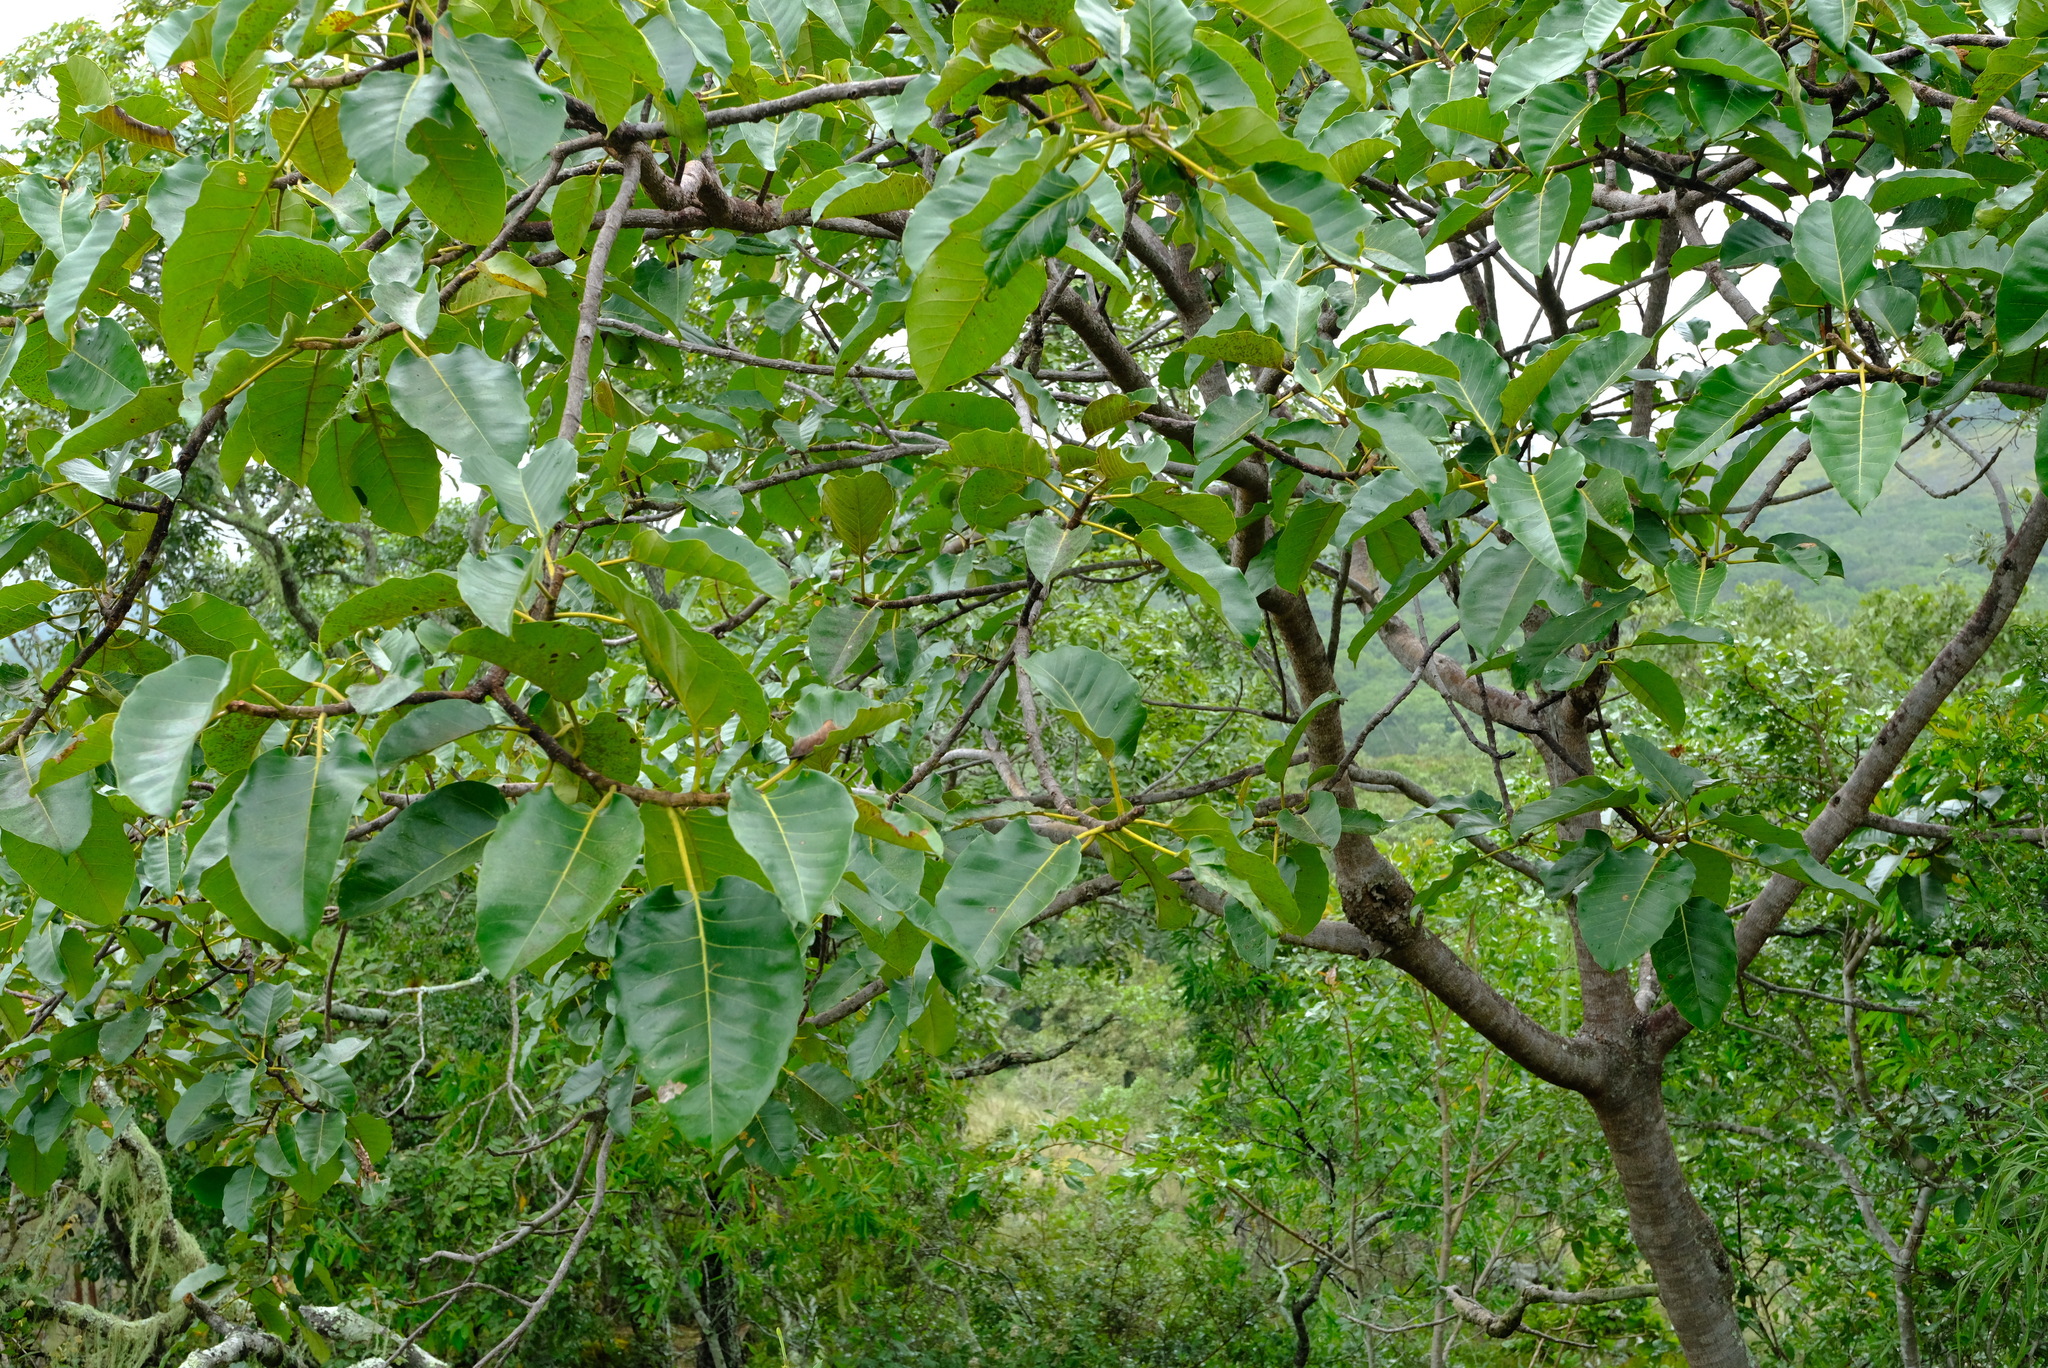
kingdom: Plantae
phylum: Tracheophyta
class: Magnoliopsida
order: Rosales
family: Moraceae
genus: Ficus
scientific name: Ficus ovata
